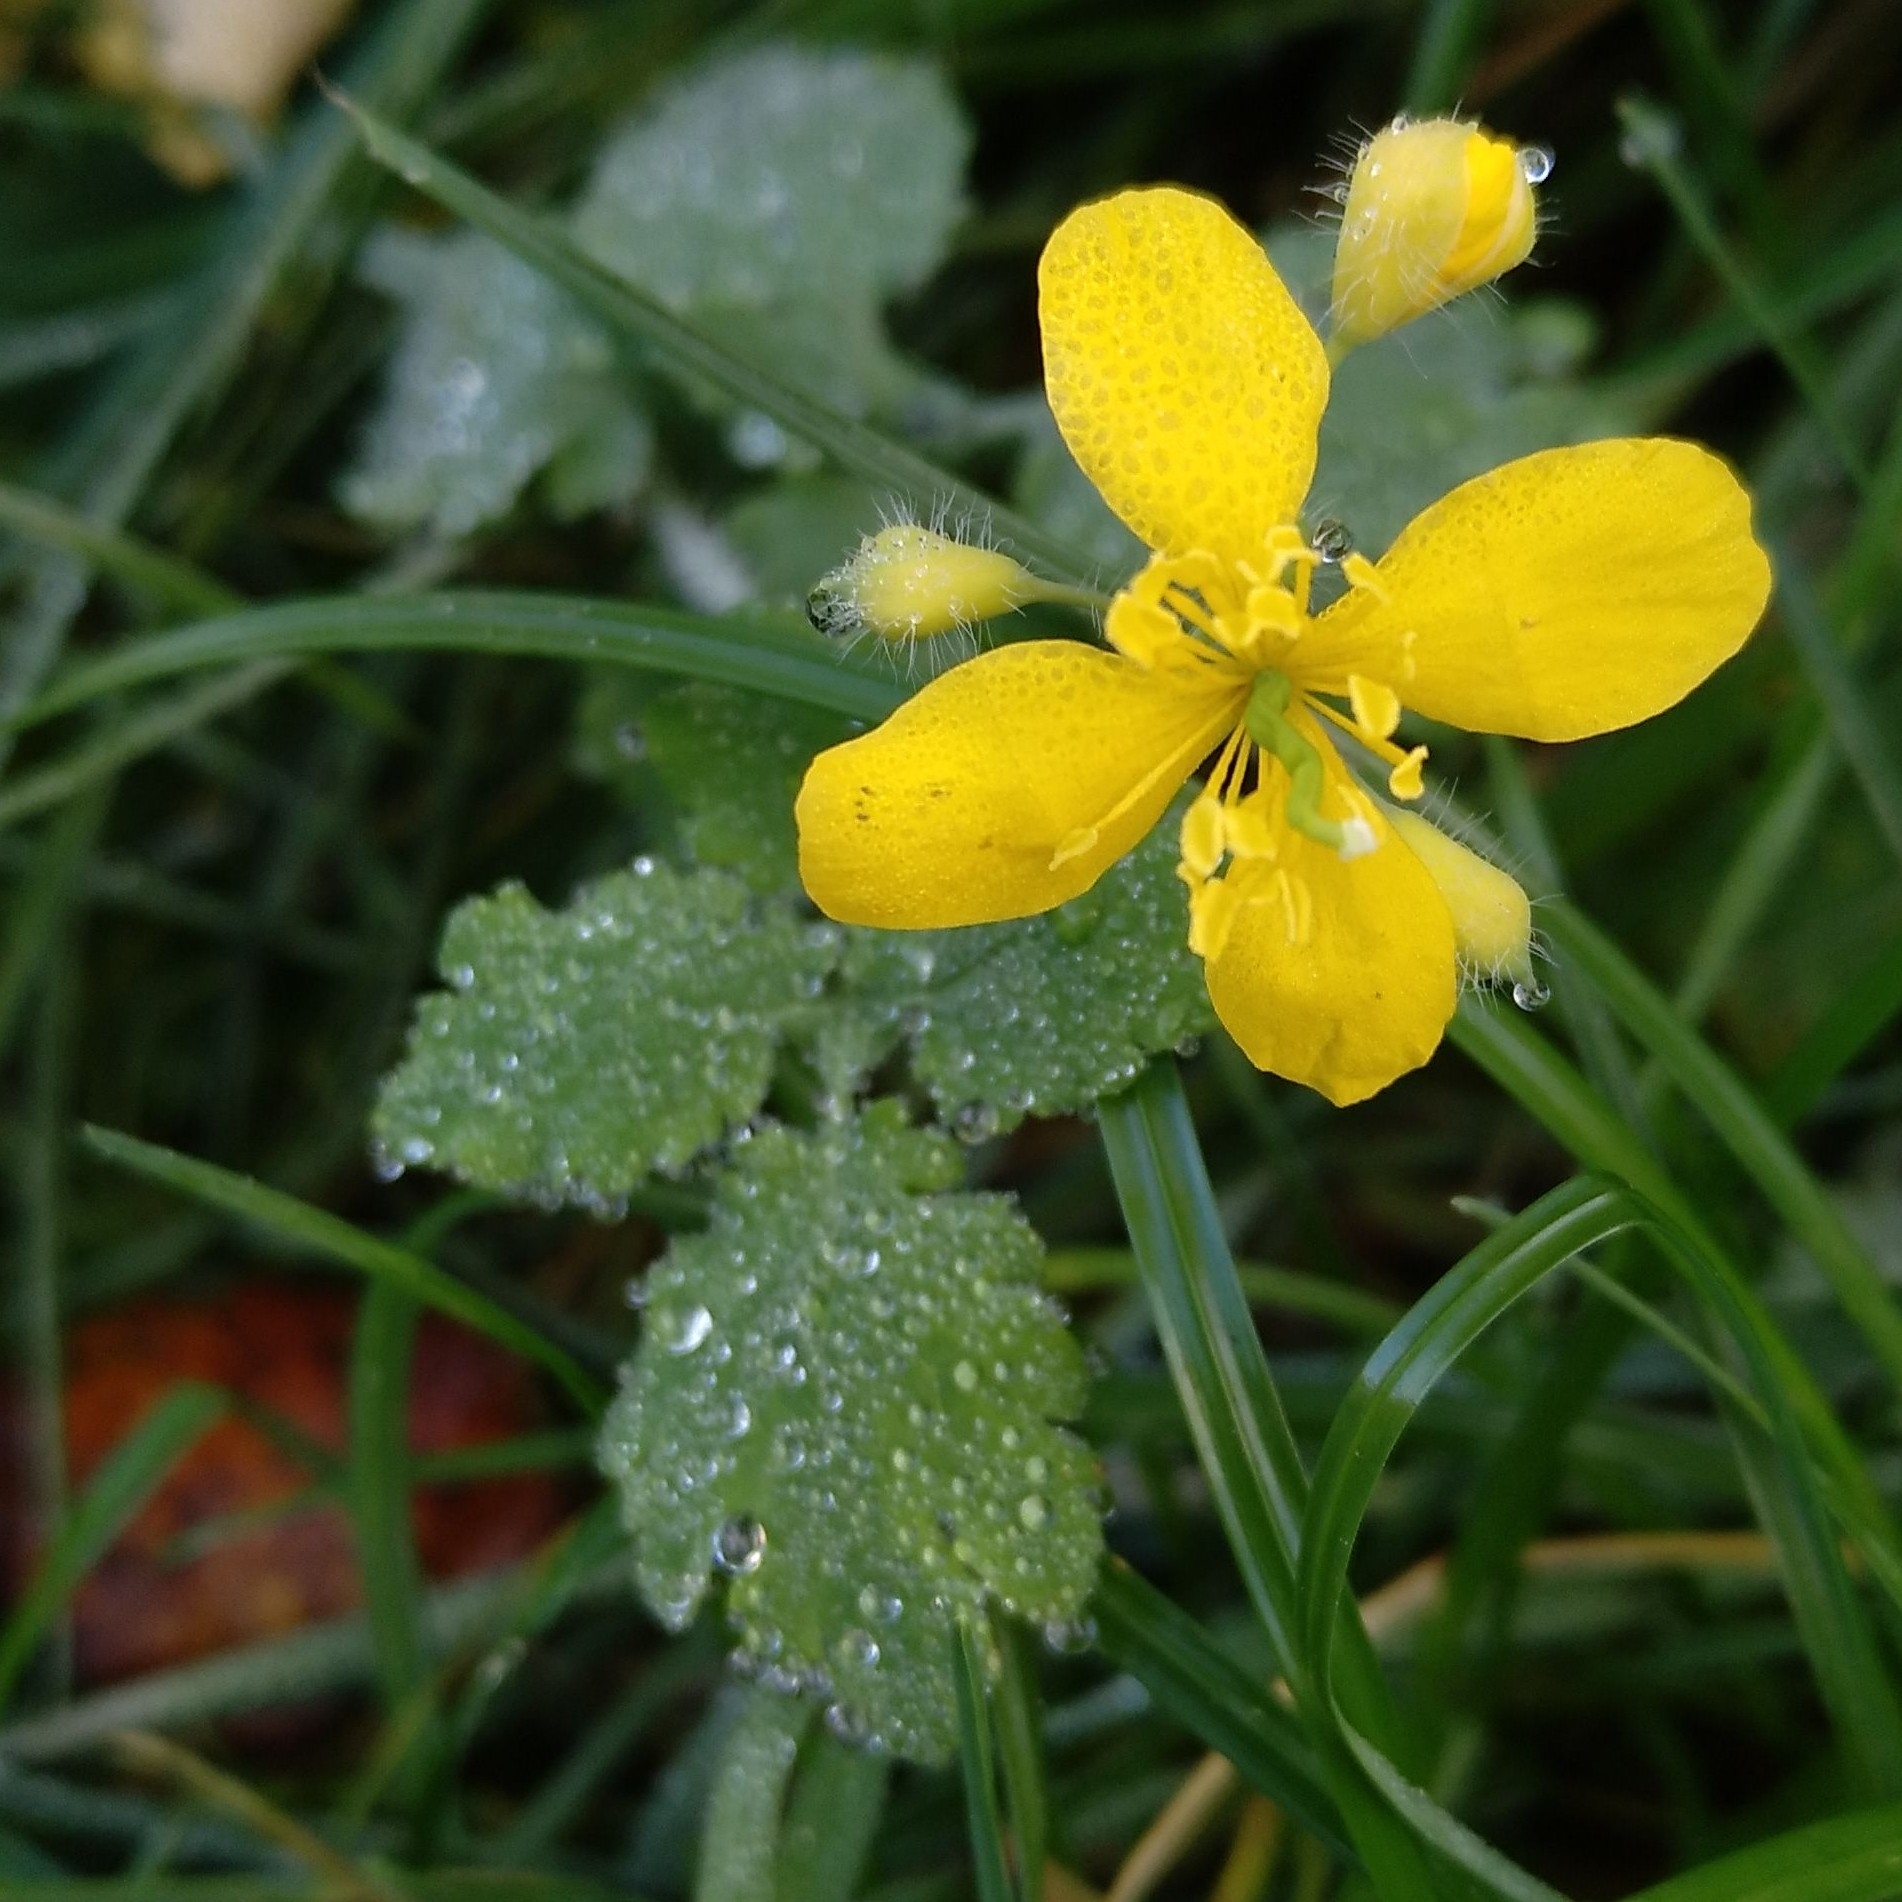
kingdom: Plantae
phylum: Tracheophyta
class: Magnoliopsida
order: Ranunculales
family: Papaveraceae
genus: Chelidonium
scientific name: Chelidonium majus
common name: Greater celandine
